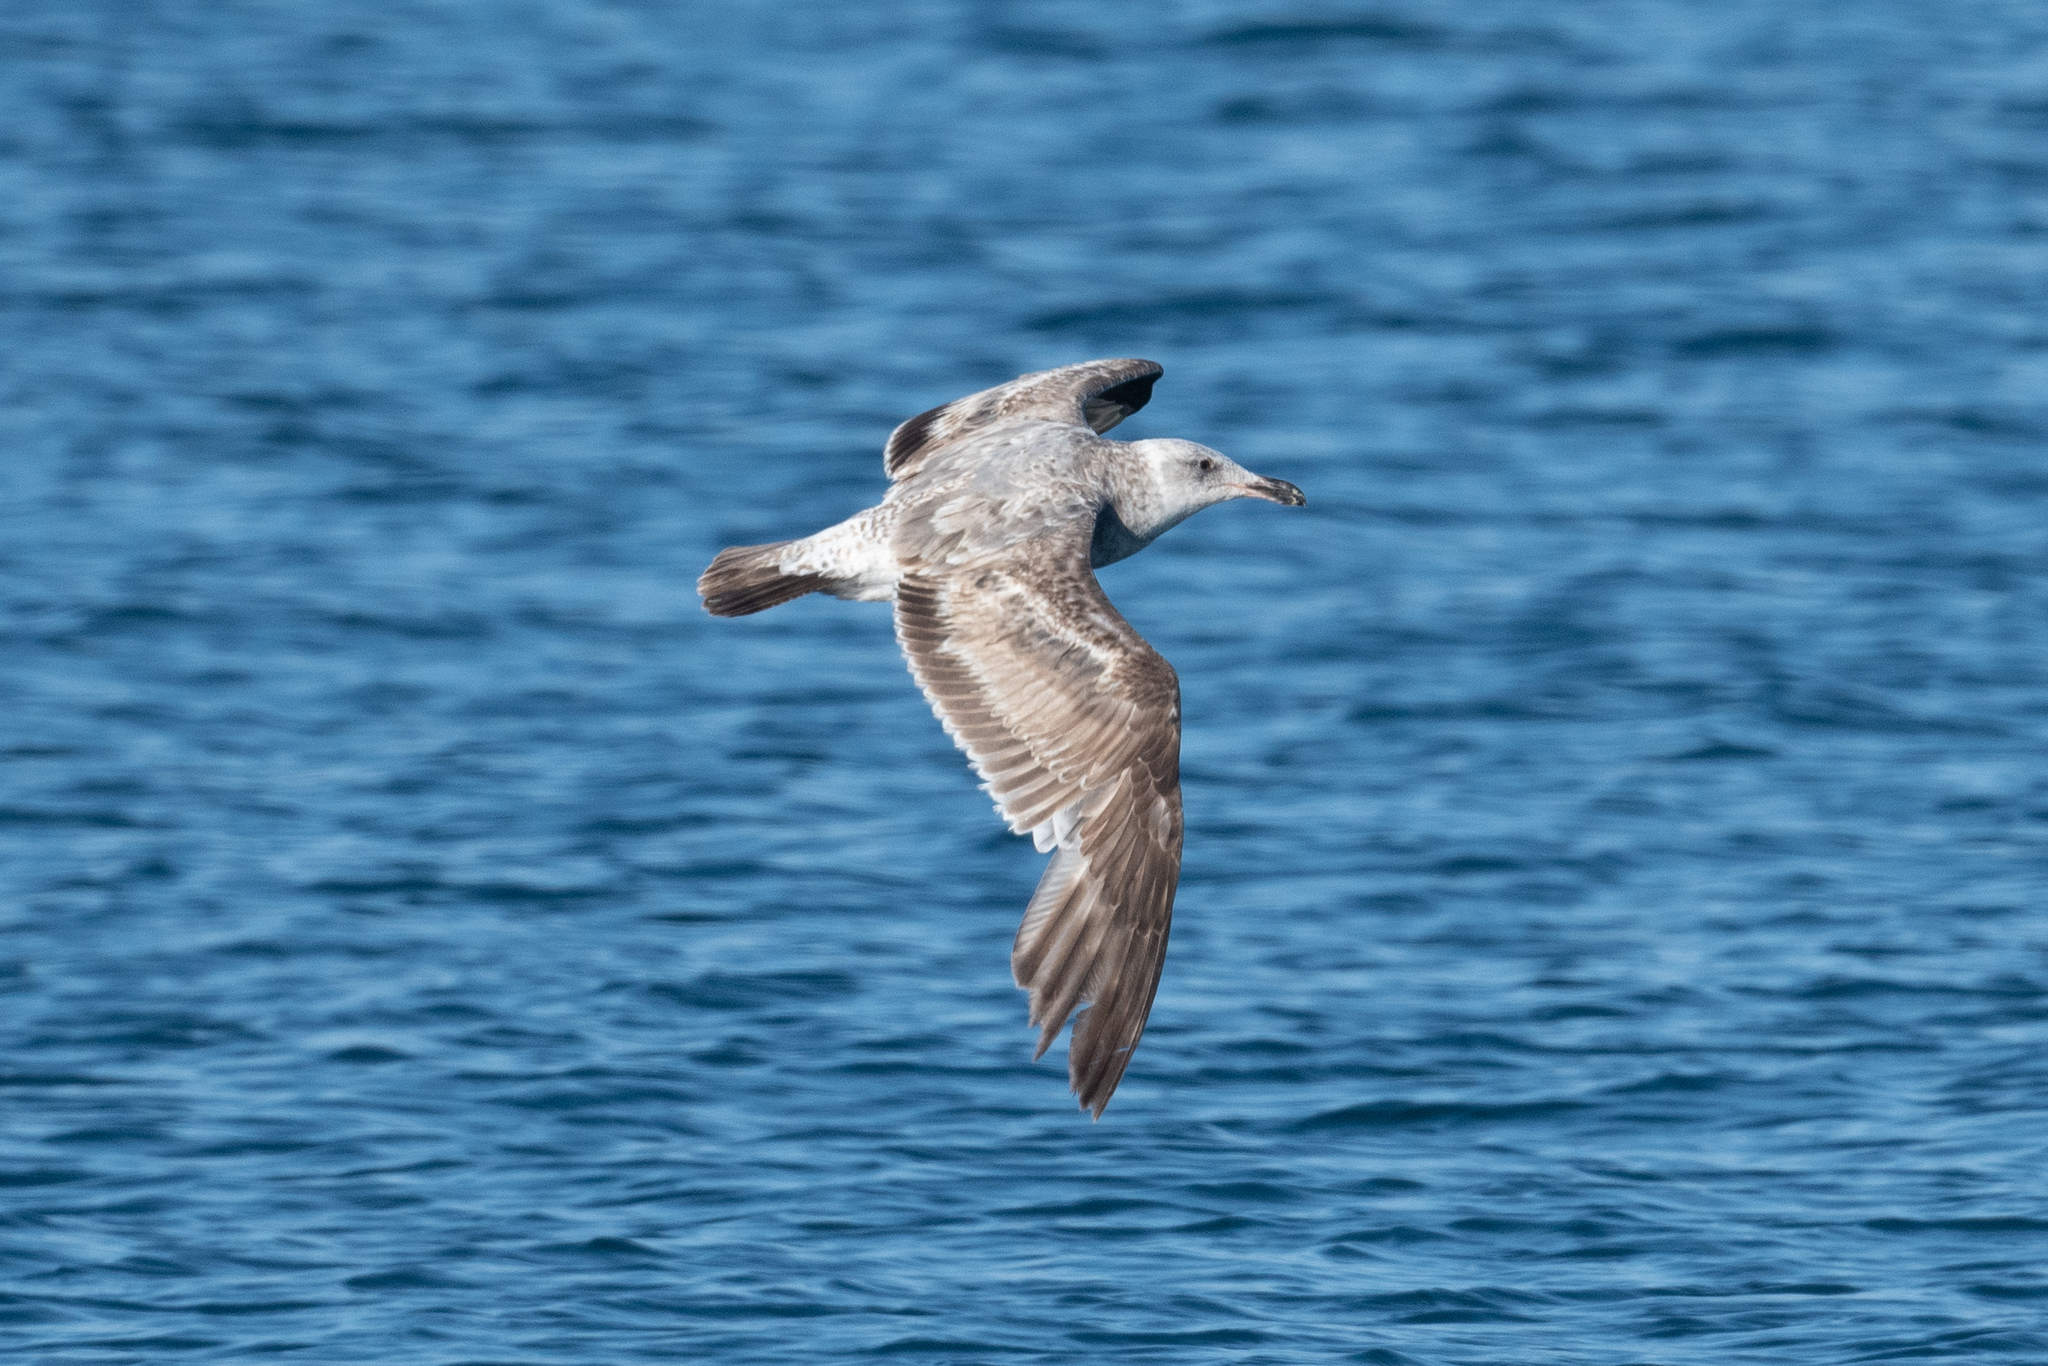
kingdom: Animalia
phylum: Chordata
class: Aves
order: Charadriiformes
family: Laridae
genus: Larus
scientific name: Larus occidentalis
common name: Western gull
